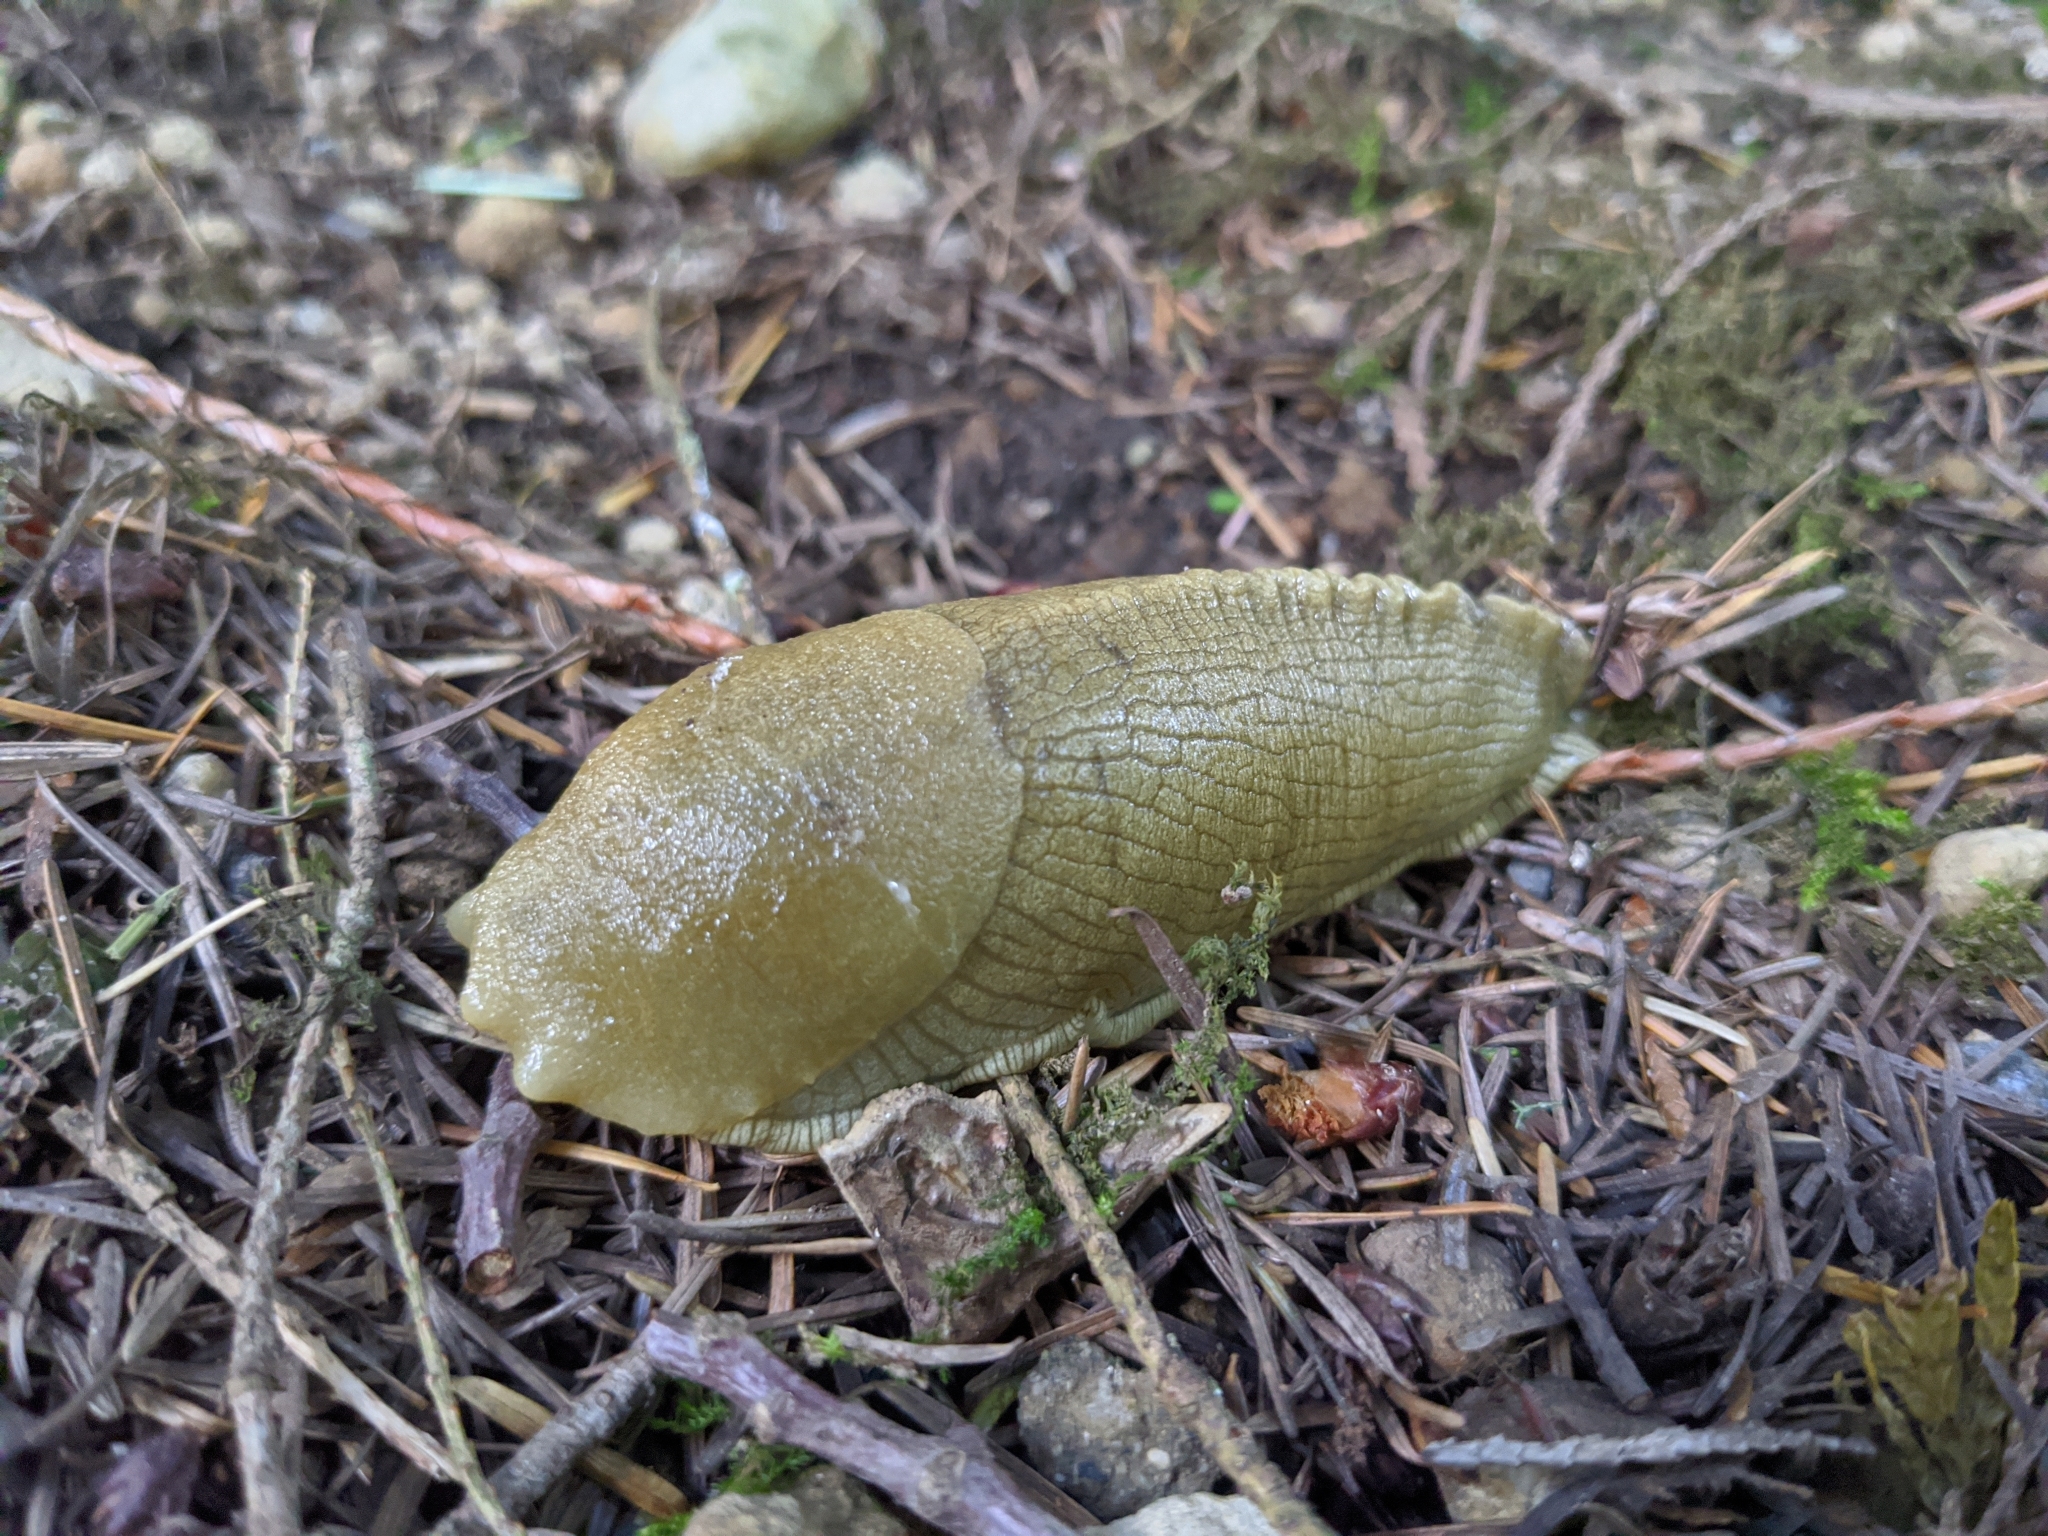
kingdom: Animalia
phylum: Mollusca
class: Gastropoda
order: Stylommatophora
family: Ariolimacidae
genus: Ariolimax
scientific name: Ariolimax columbianus
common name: Pacific banana slug
